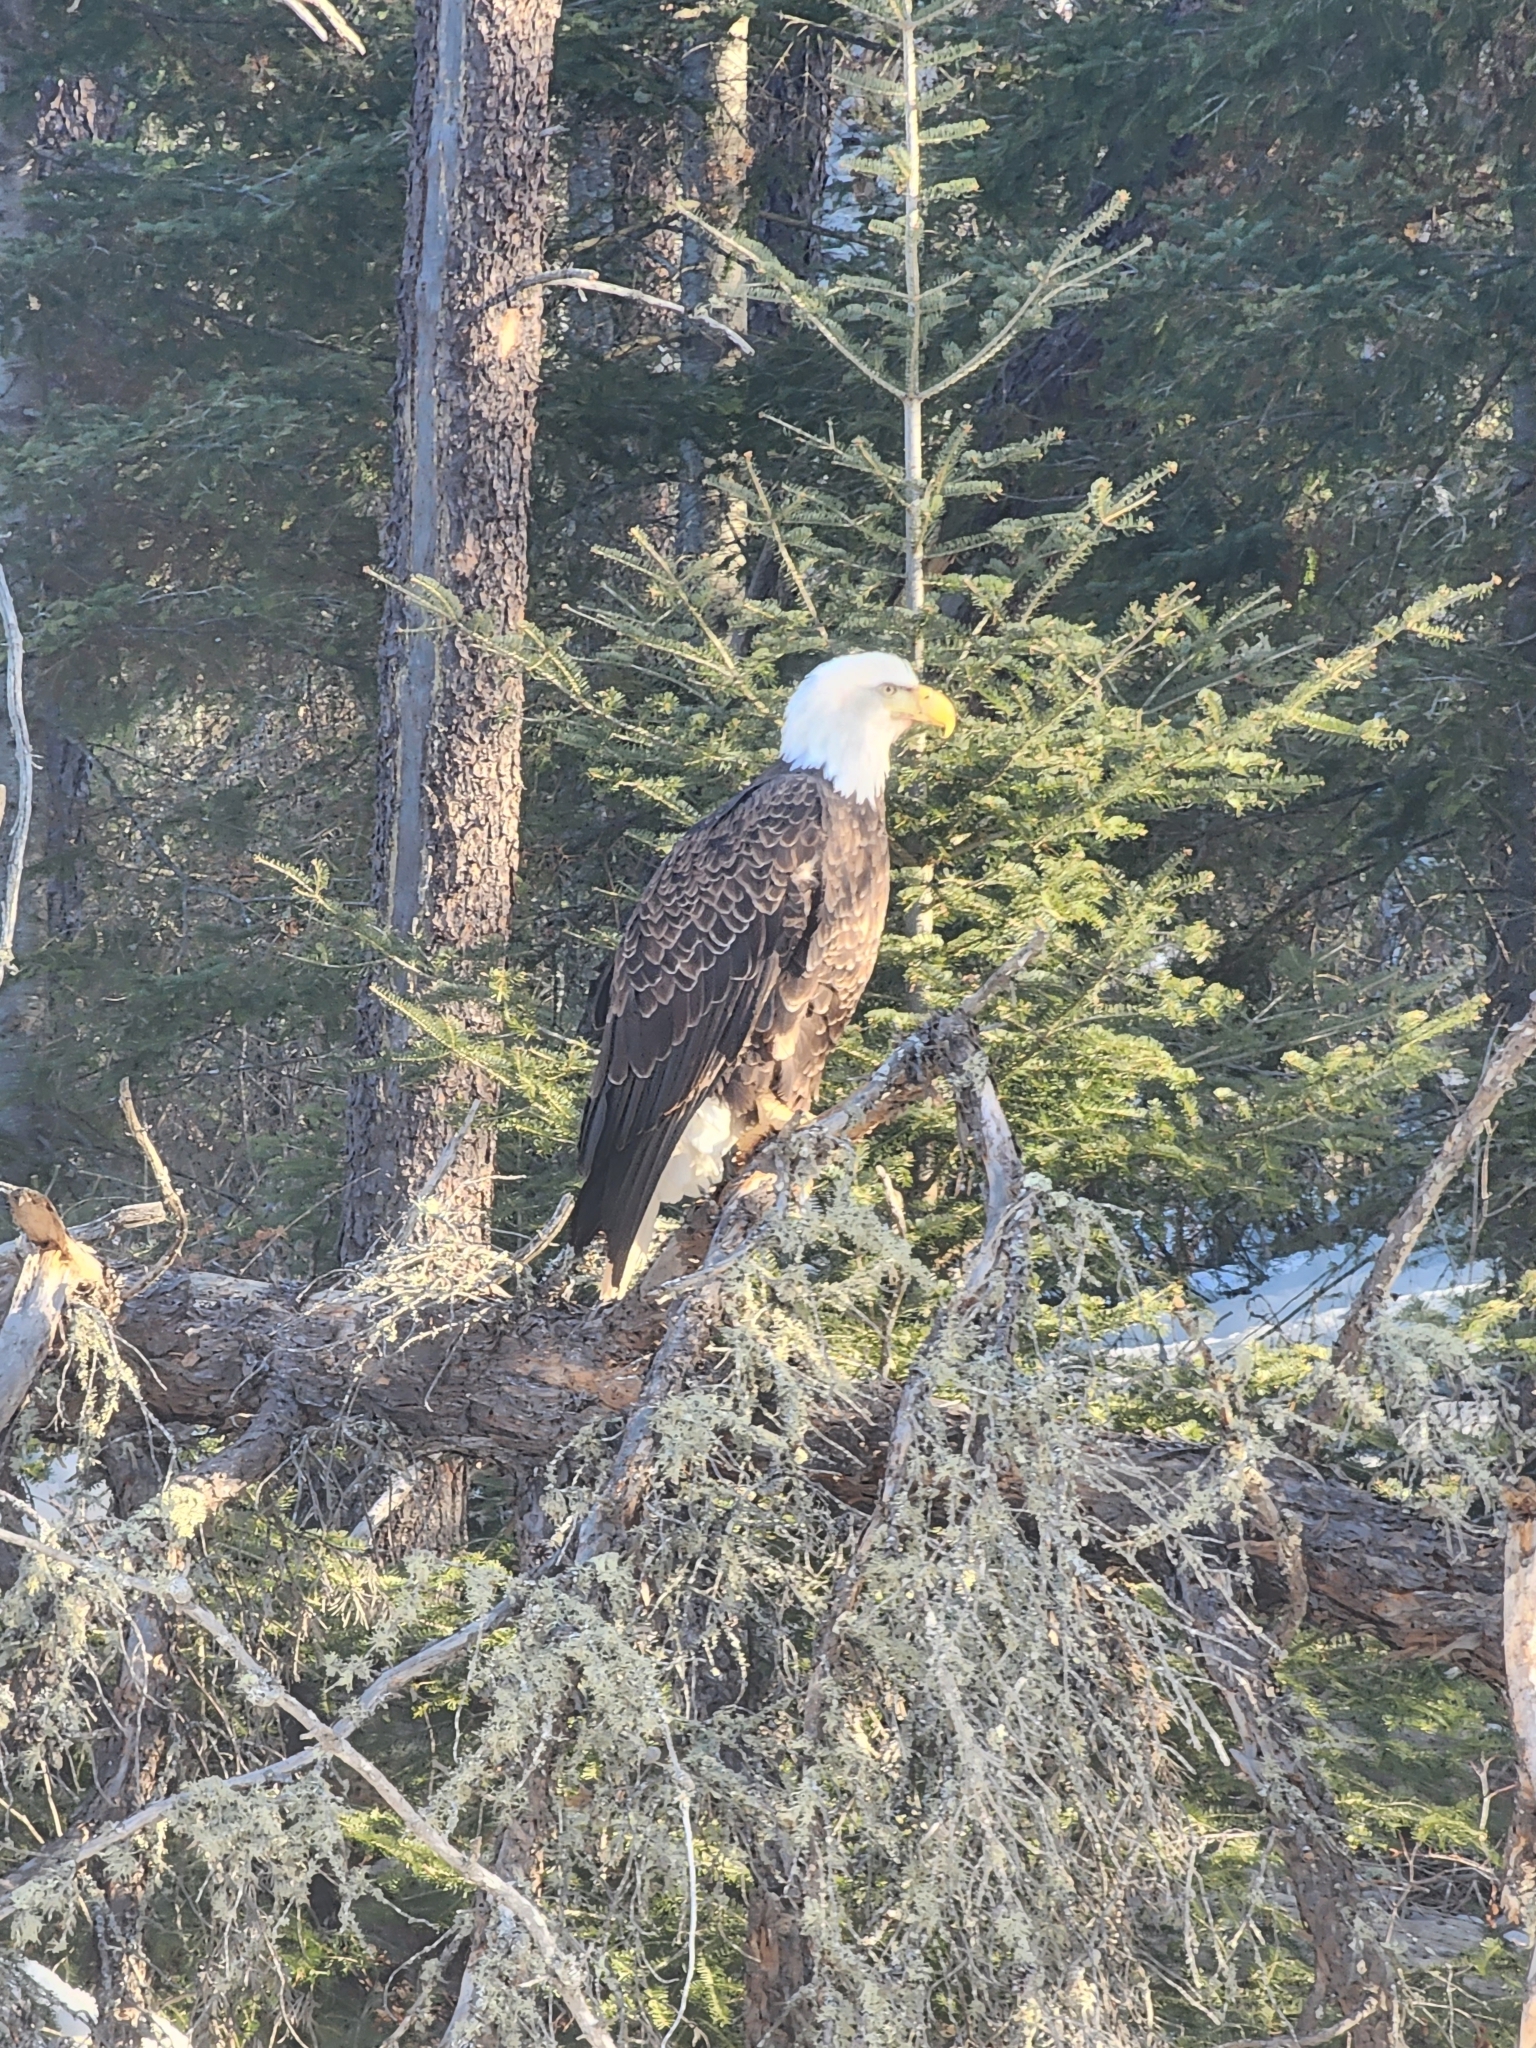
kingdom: Animalia
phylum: Chordata
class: Aves
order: Accipitriformes
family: Accipitridae
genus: Haliaeetus
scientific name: Haliaeetus leucocephalus
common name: Bald eagle
